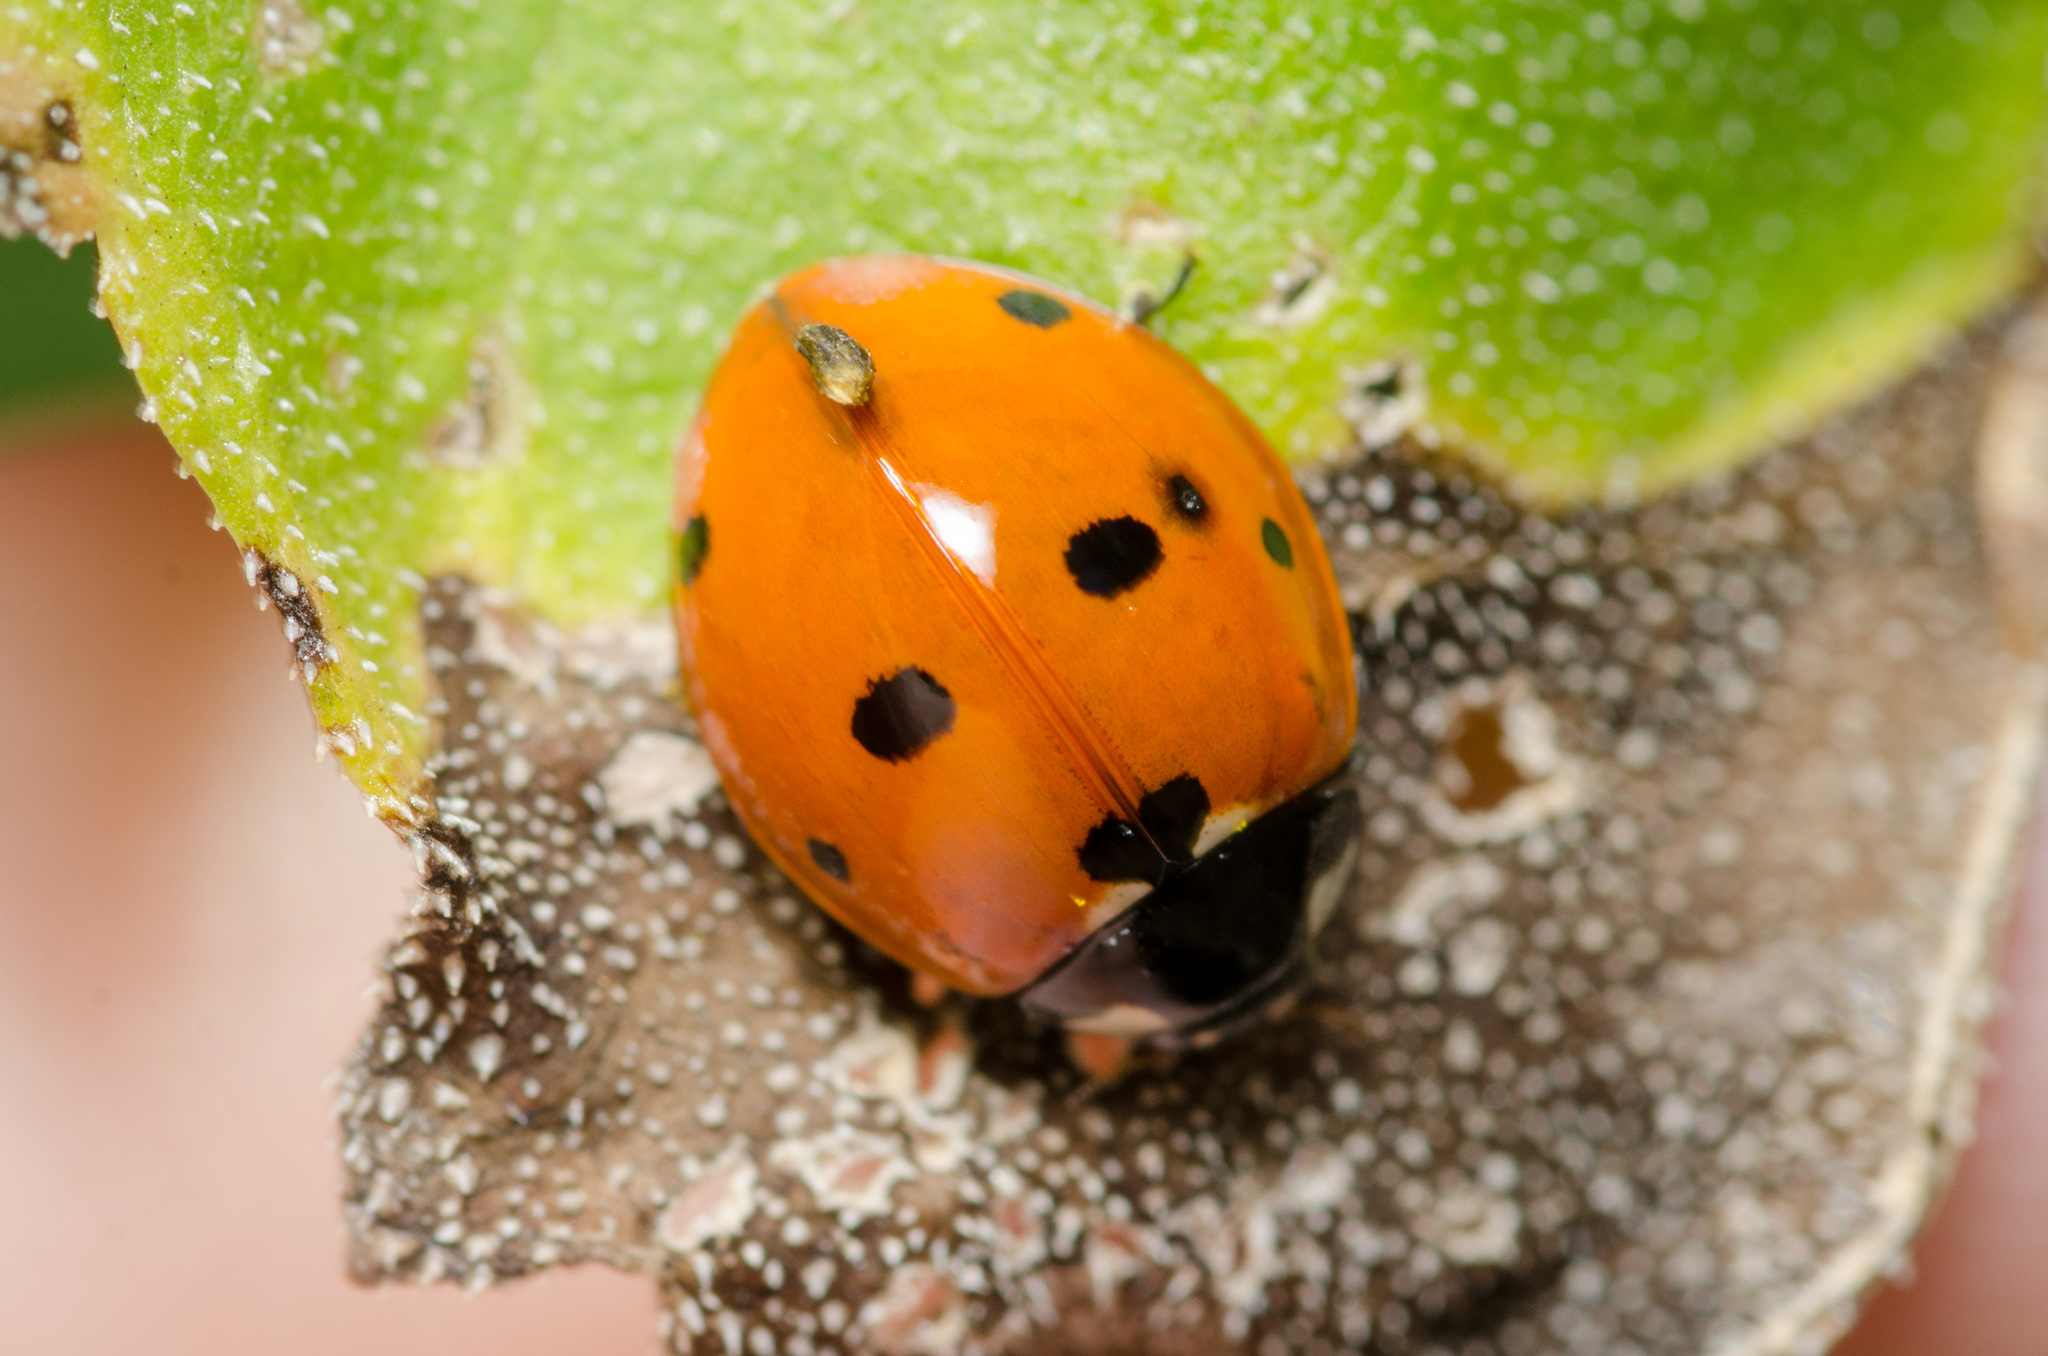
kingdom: Animalia
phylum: Arthropoda
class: Insecta
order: Coleoptera
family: Coccinellidae
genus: Coccinella
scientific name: Coccinella septempunctata
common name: Sevenspotted lady beetle
